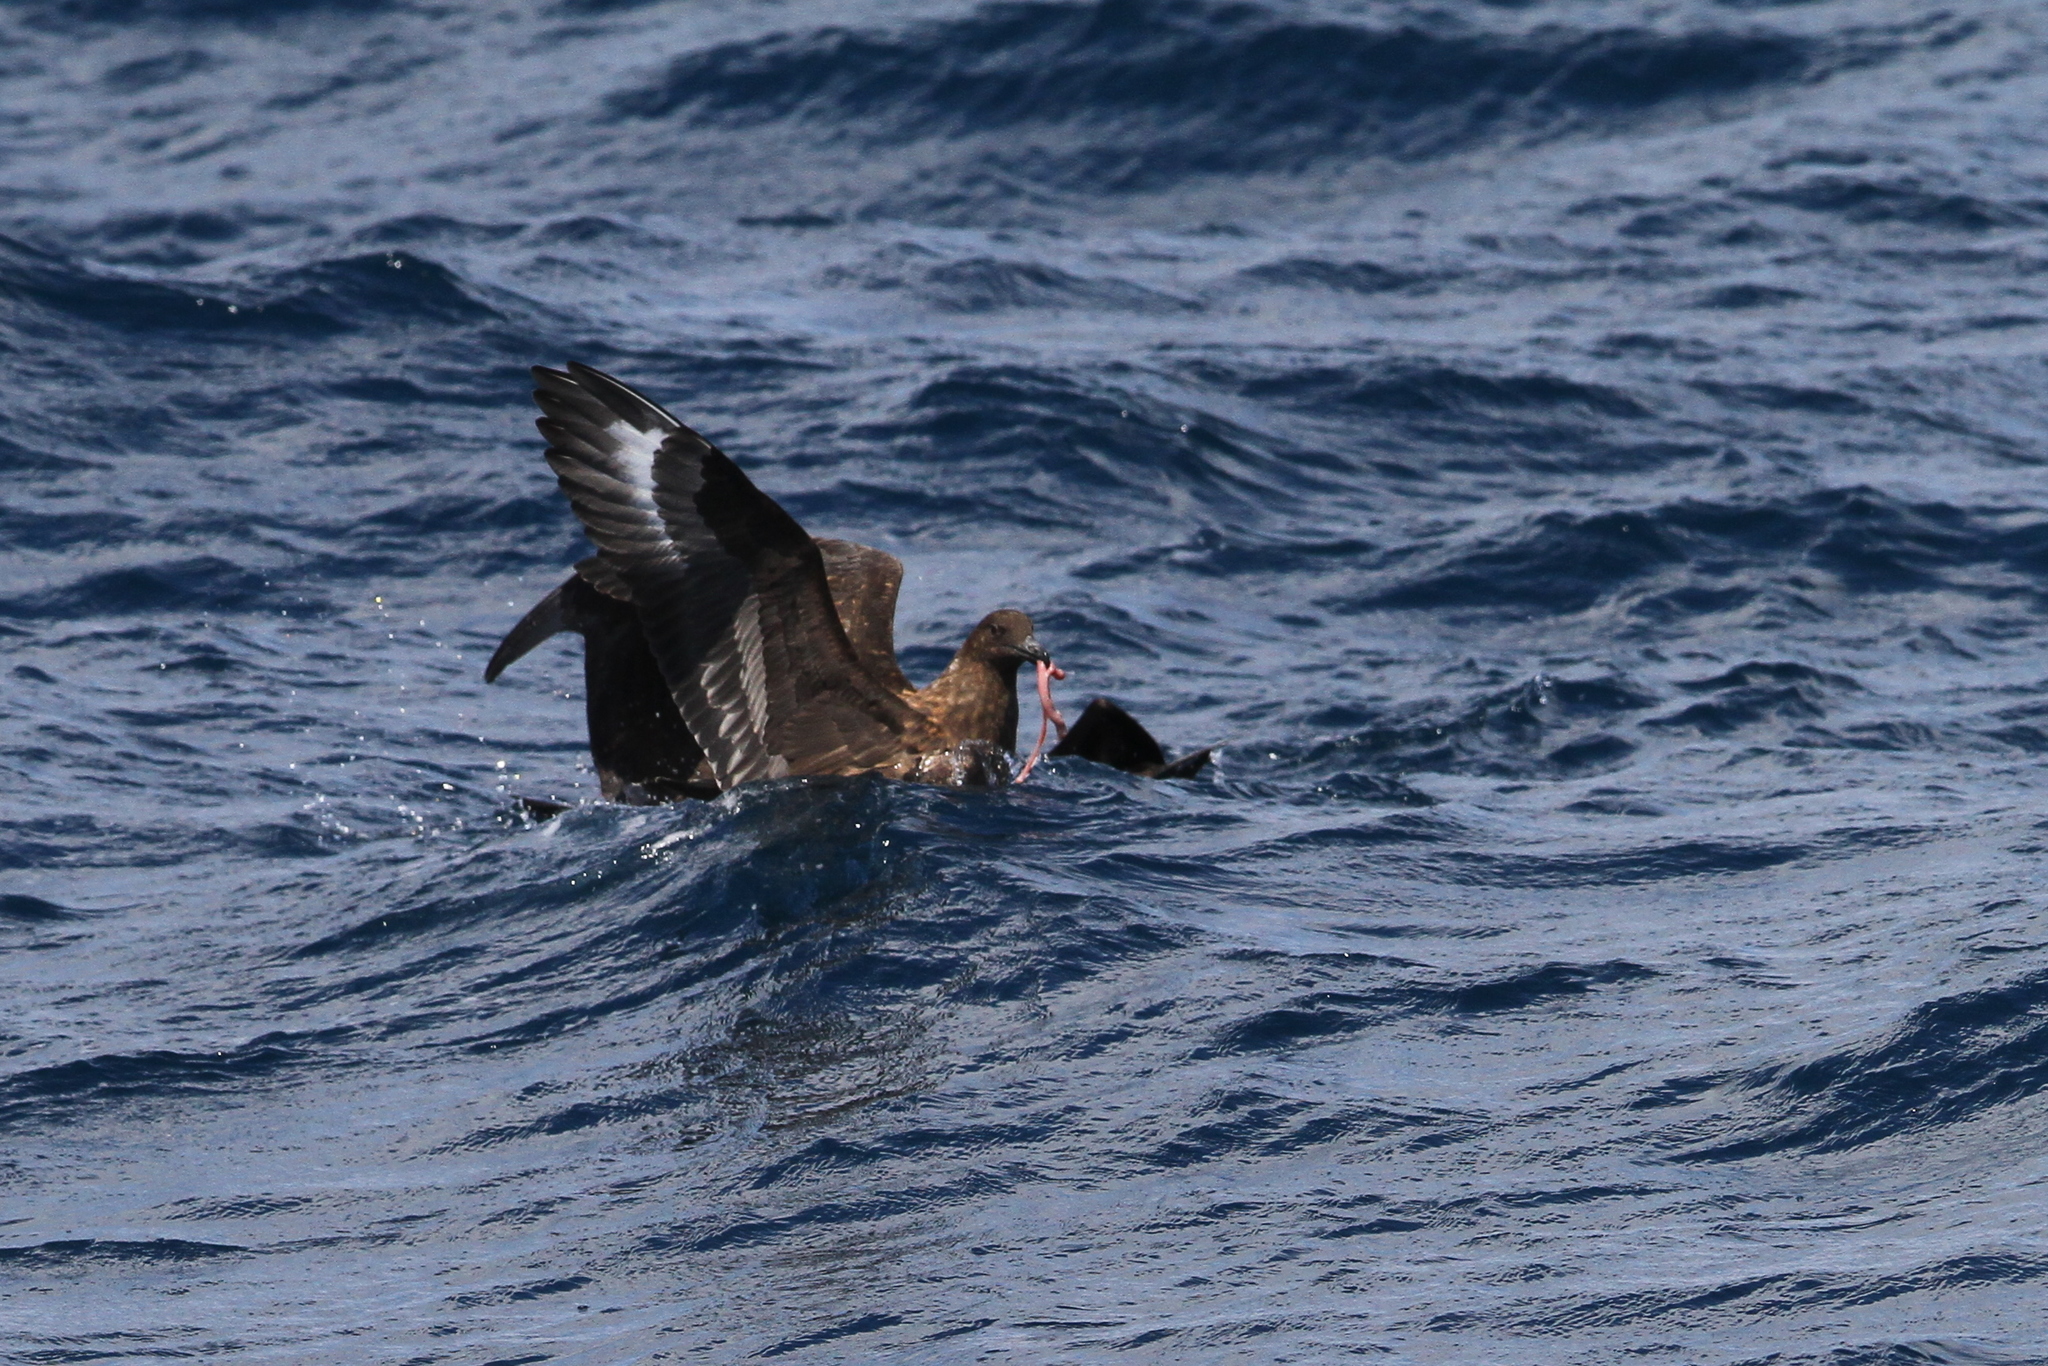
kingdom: Animalia
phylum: Chordata
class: Aves
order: Charadriiformes
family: Stercorariidae
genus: Stercorarius
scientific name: Stercorarius antarcticus
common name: Brown skua
